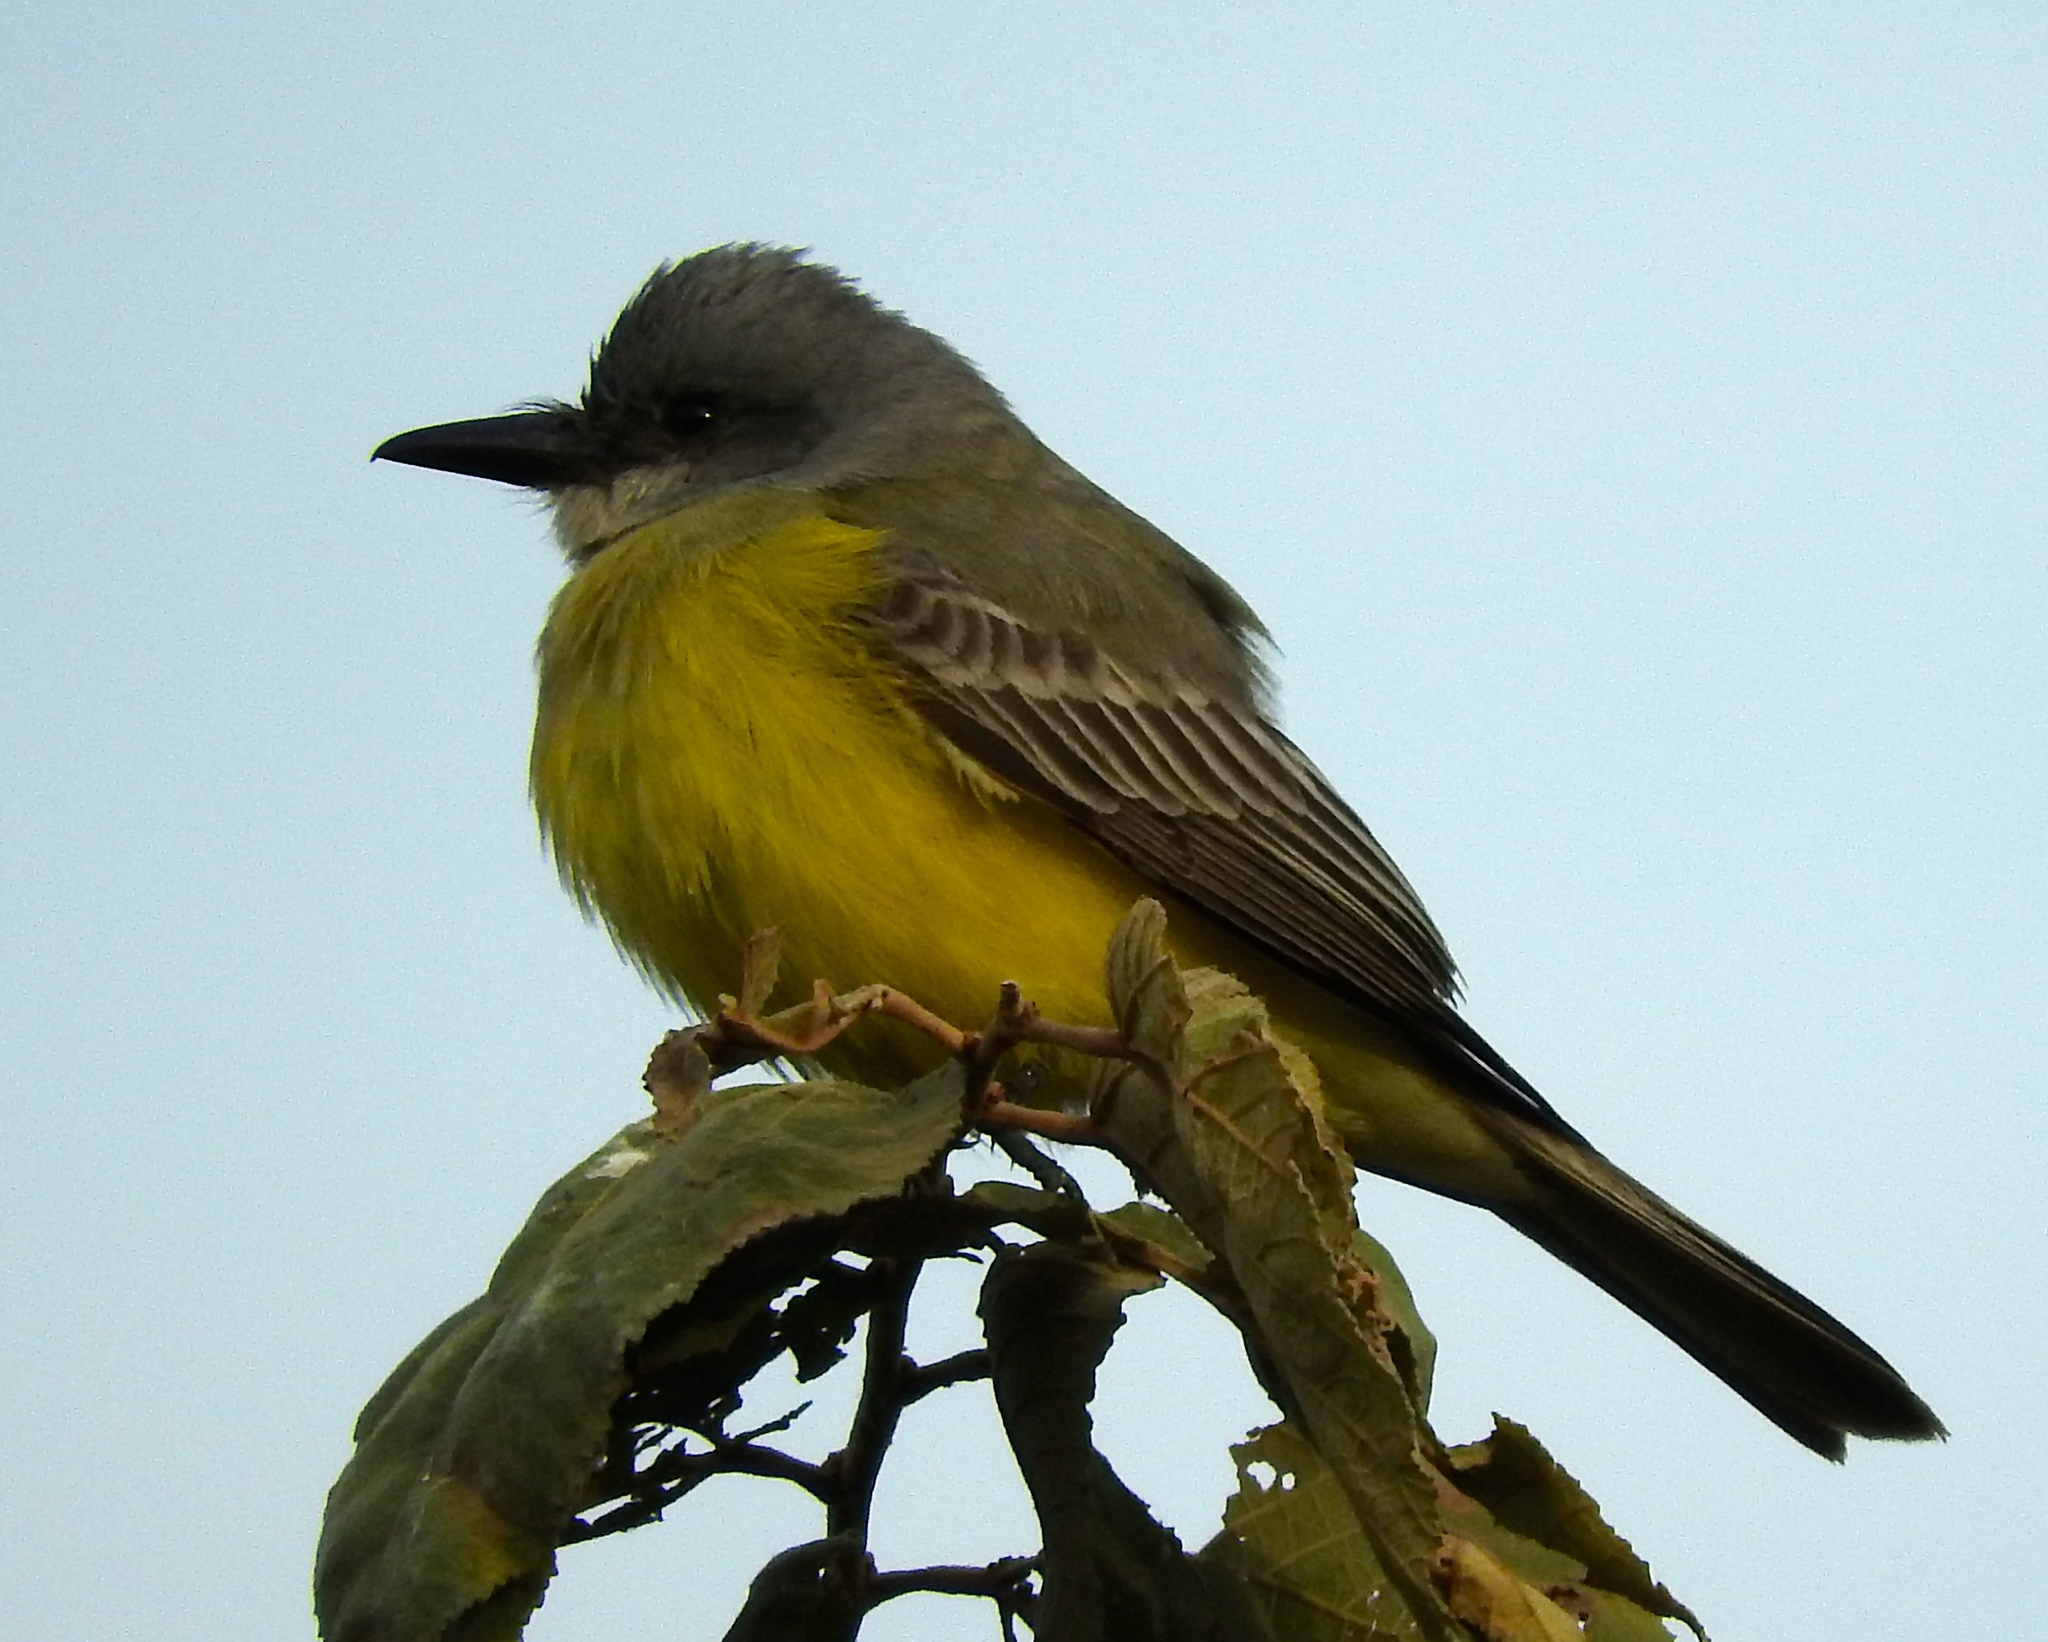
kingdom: Animalia
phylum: Chordata
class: Aves
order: Passeriformes
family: Tyrannidae
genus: Tyrannus
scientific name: Tyrannus melancholicus
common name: Tropical kingbird
